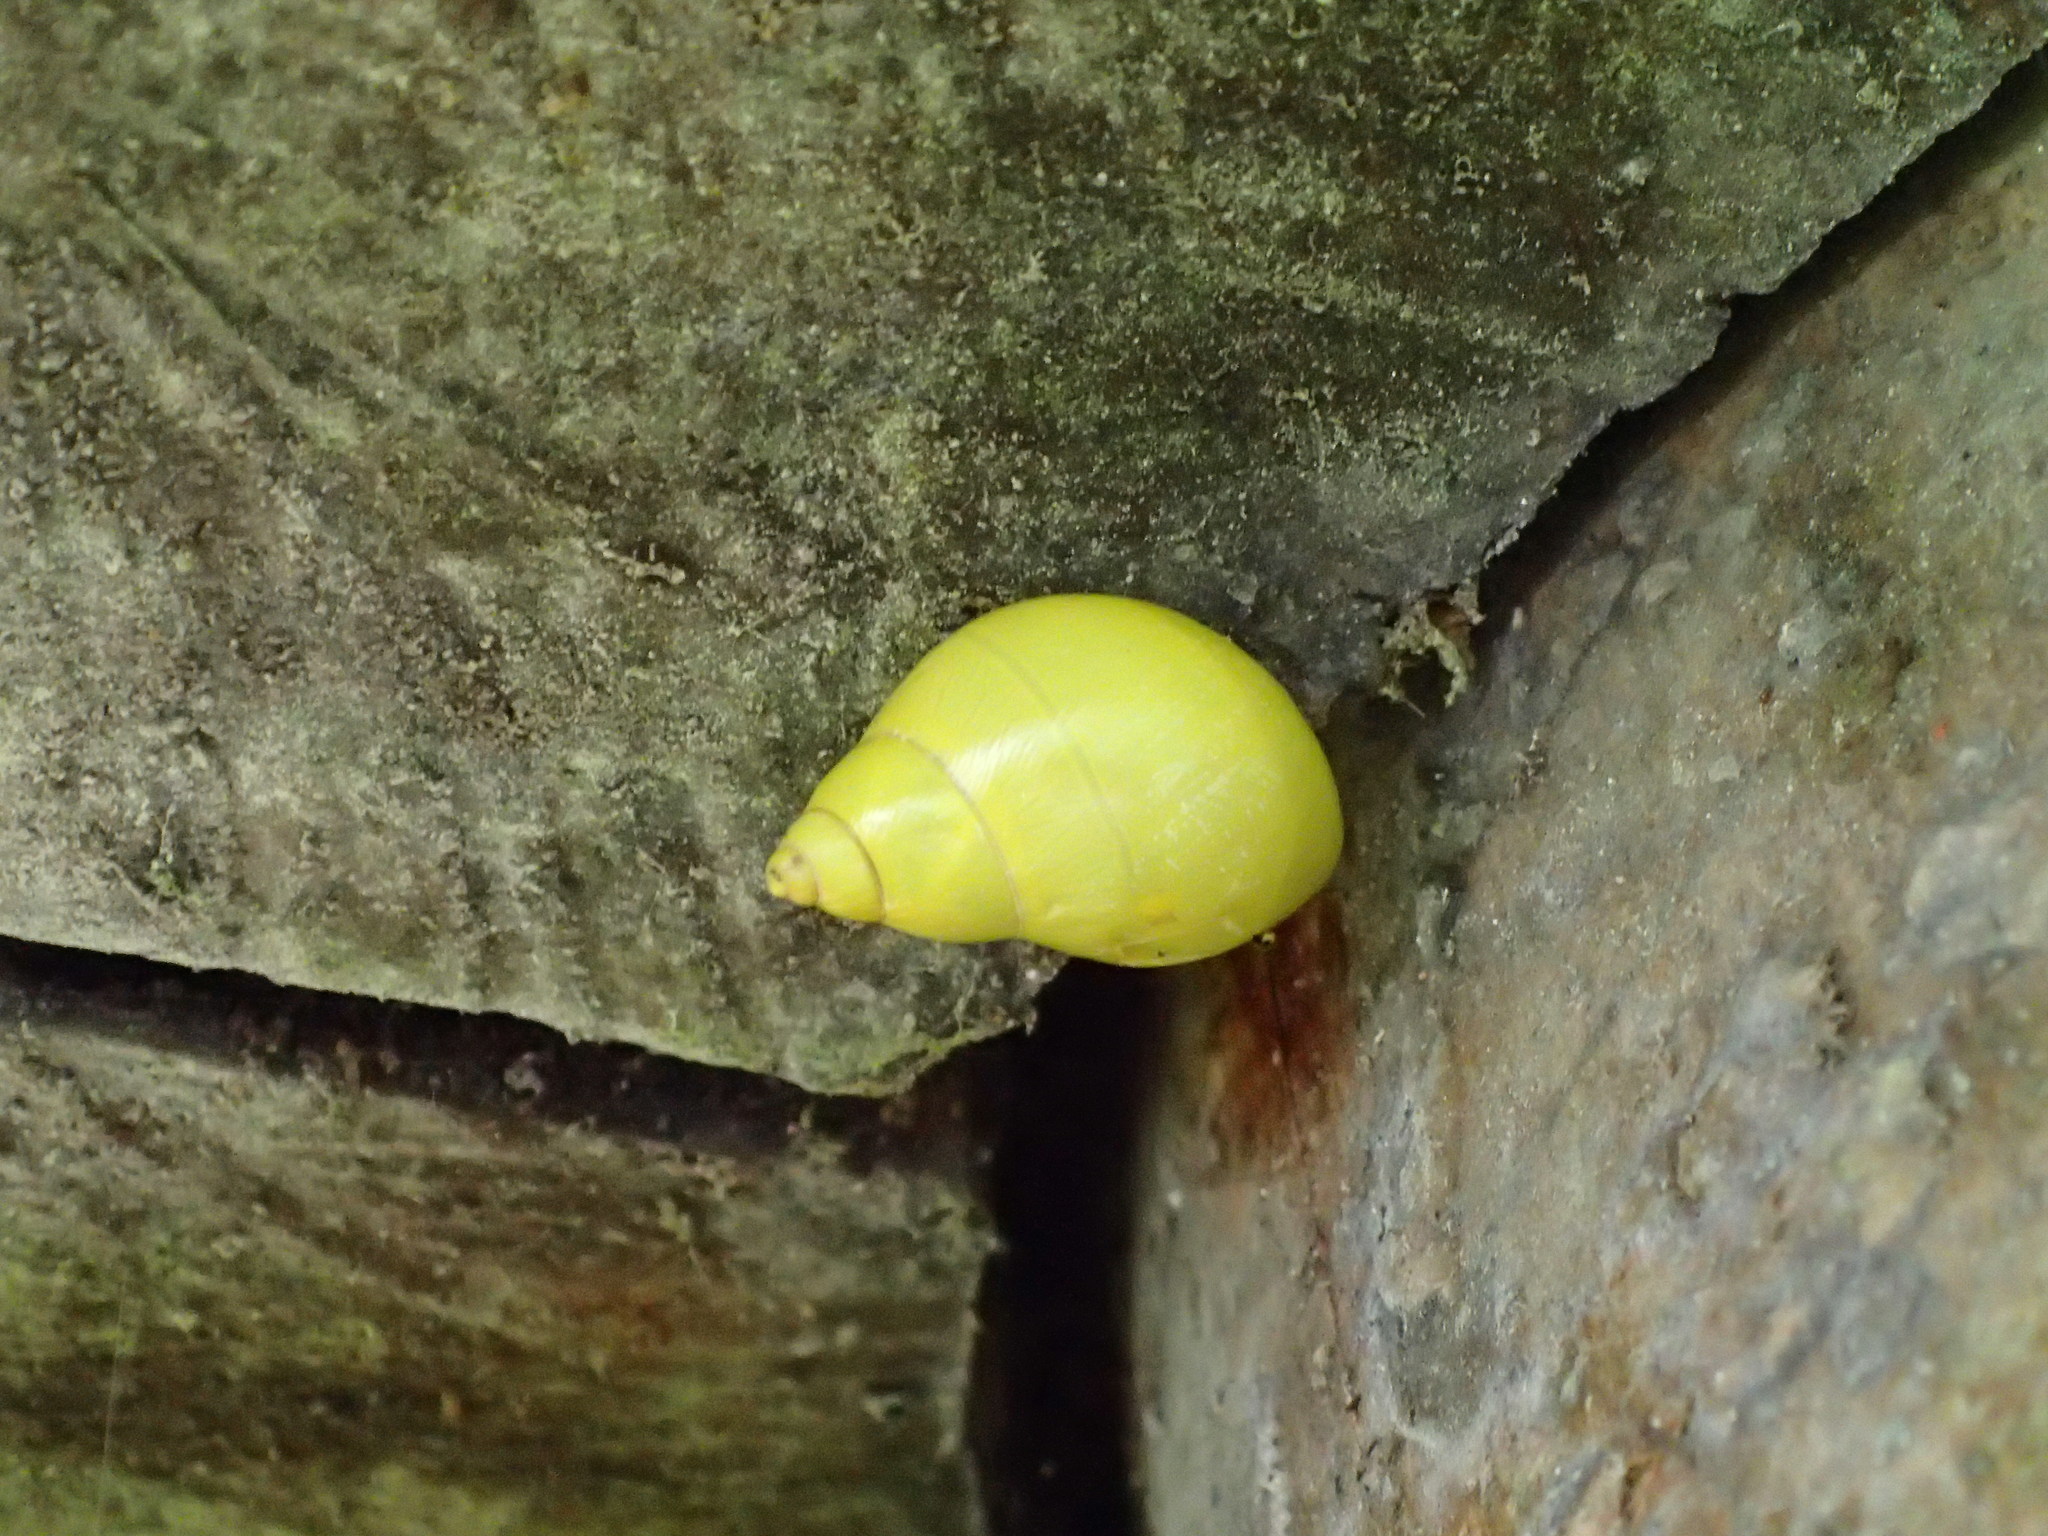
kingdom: Animalia
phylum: Mollusca
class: Gastropoda
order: Stylommatophora
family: Bulimulidae
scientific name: Bulimulidae
